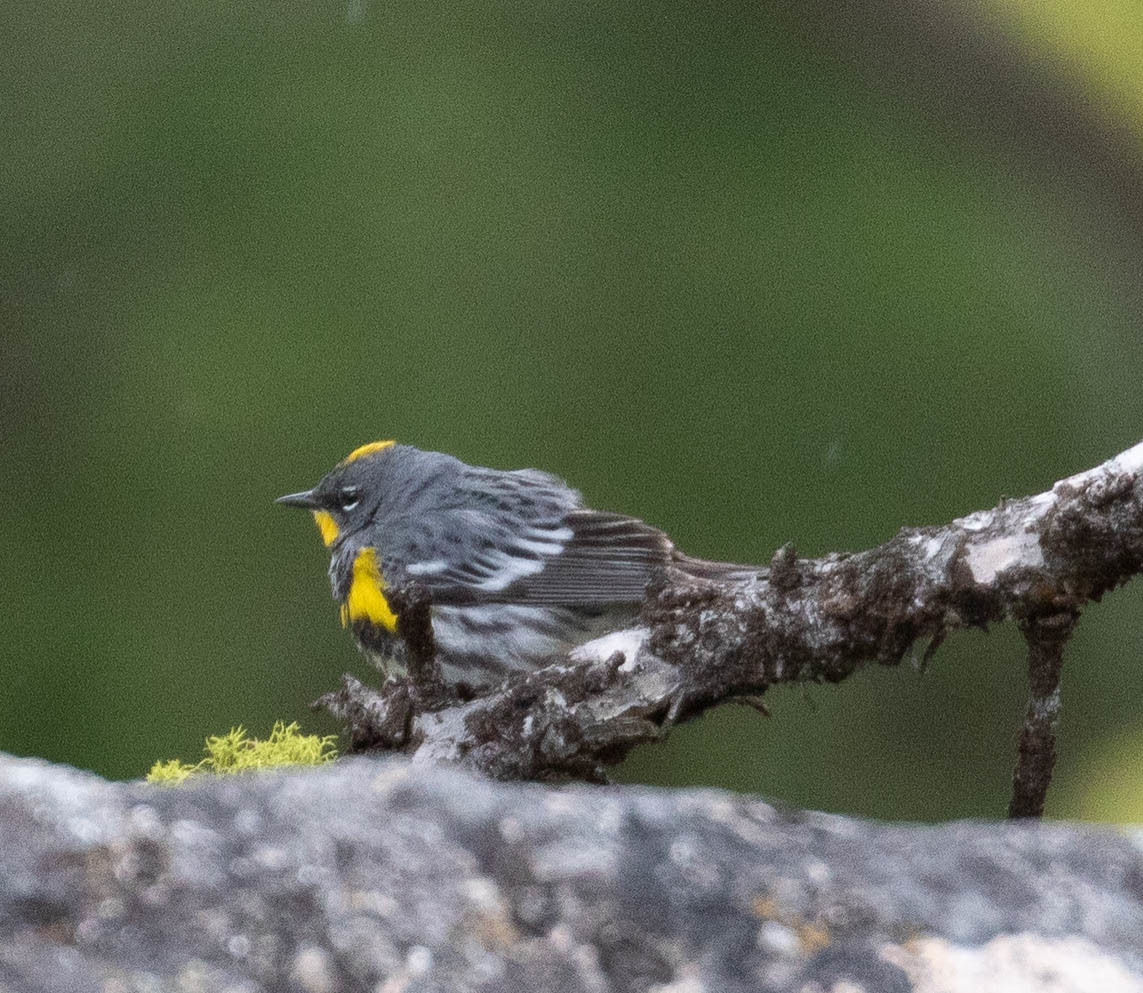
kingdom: Animalia
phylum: Chordata
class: Aves
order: Passeriformes
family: Parulidae
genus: Setophaga
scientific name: Setophaga coronata
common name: Myrtle warbler
